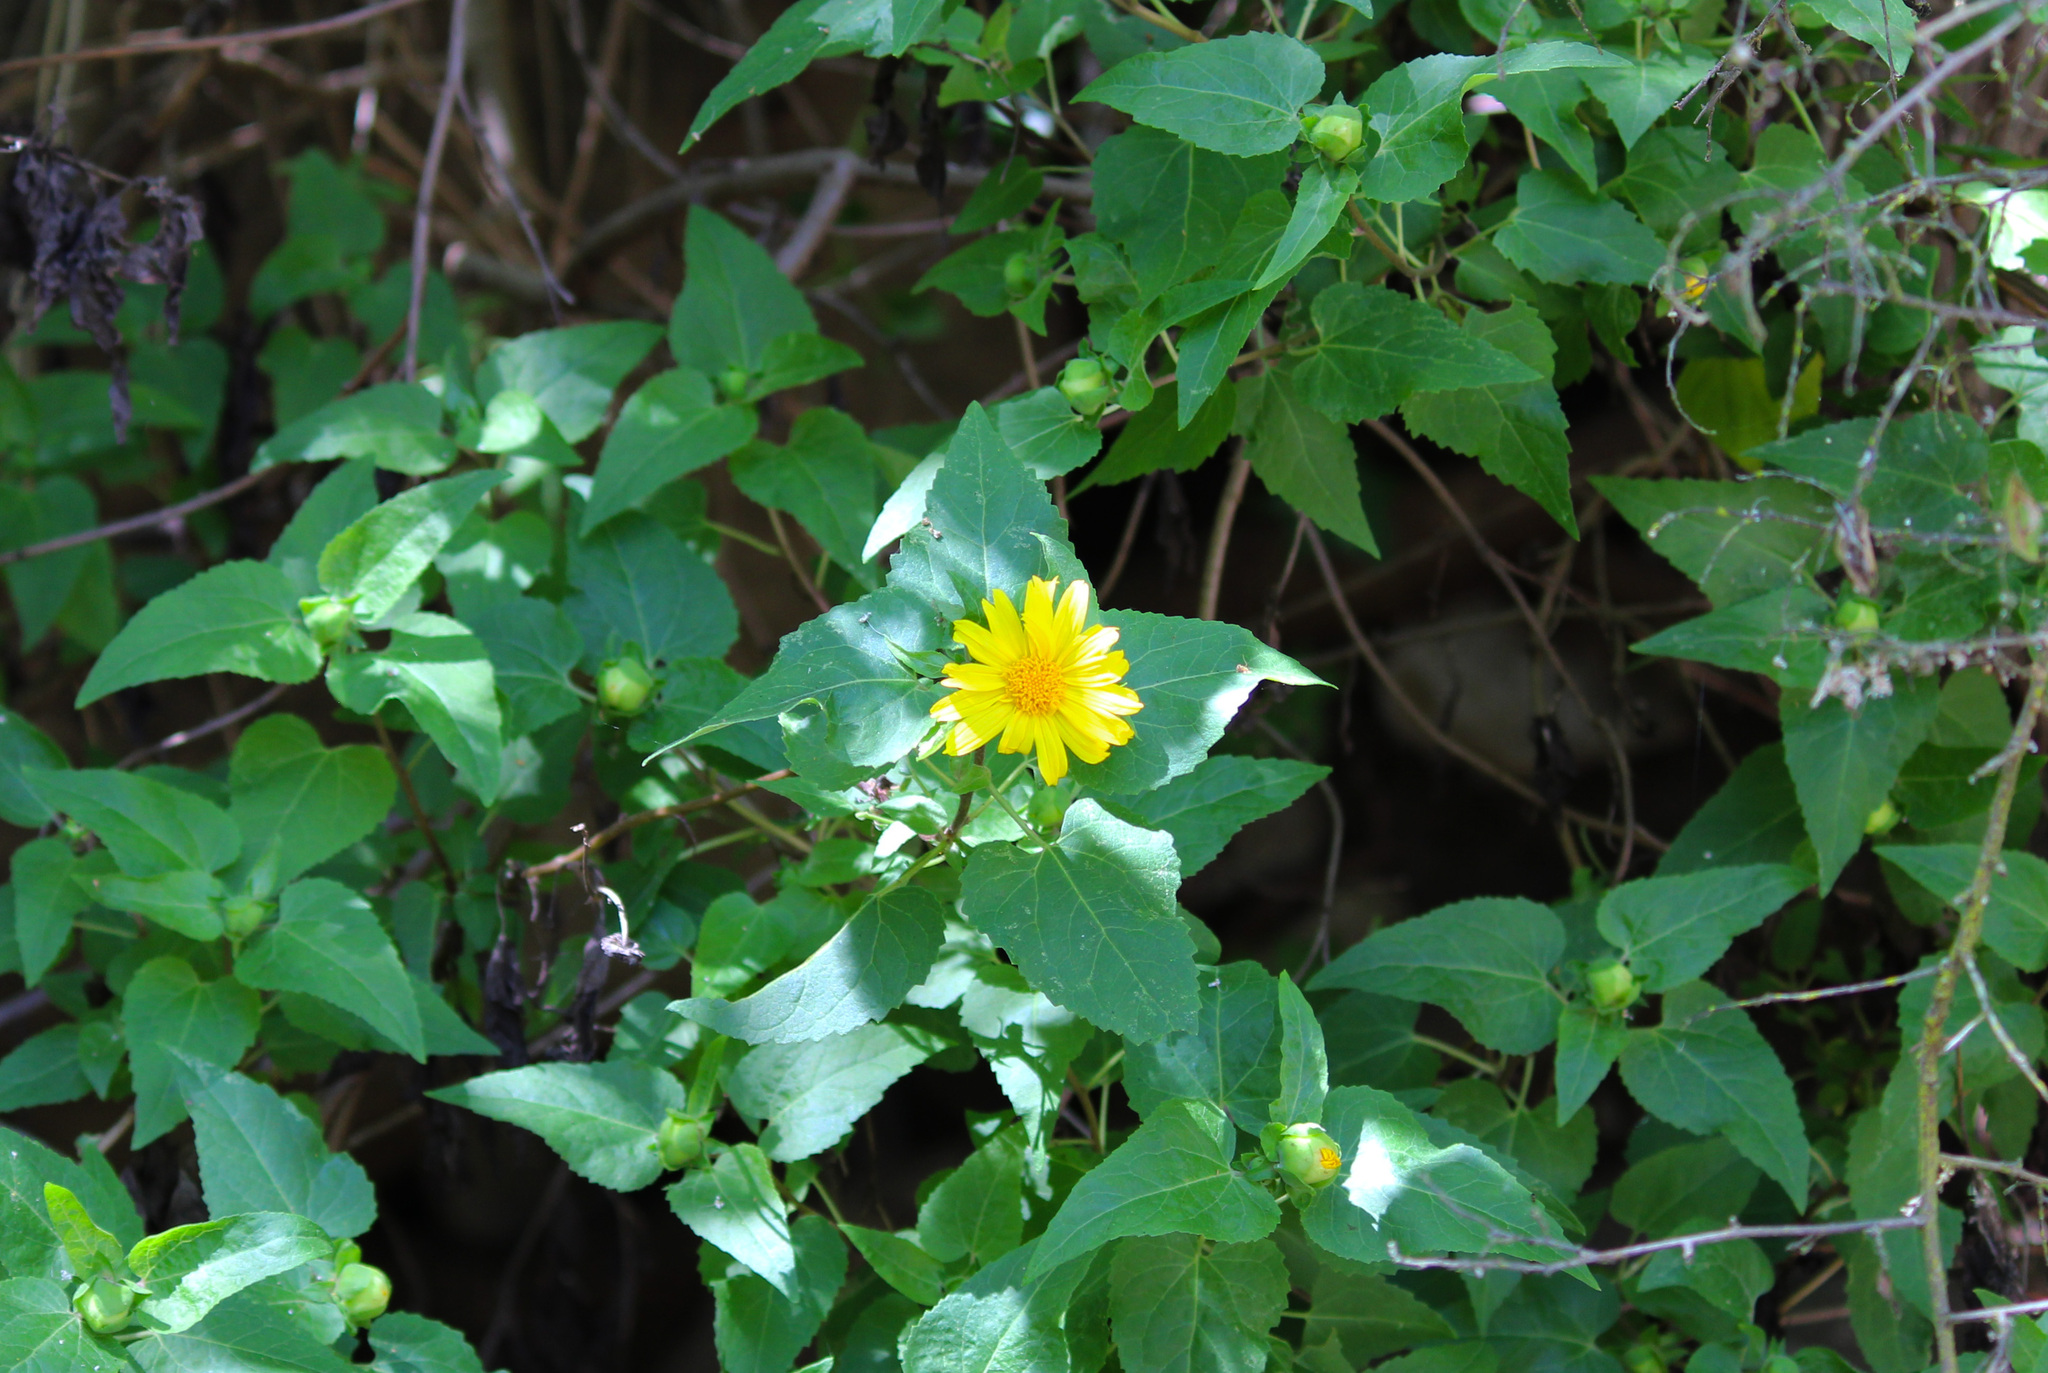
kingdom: Plantae
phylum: Tracheophyta
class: Magnoliopsida
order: Asterales
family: Asteraceae
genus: Venegasia
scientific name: Venegasia carpesioides
